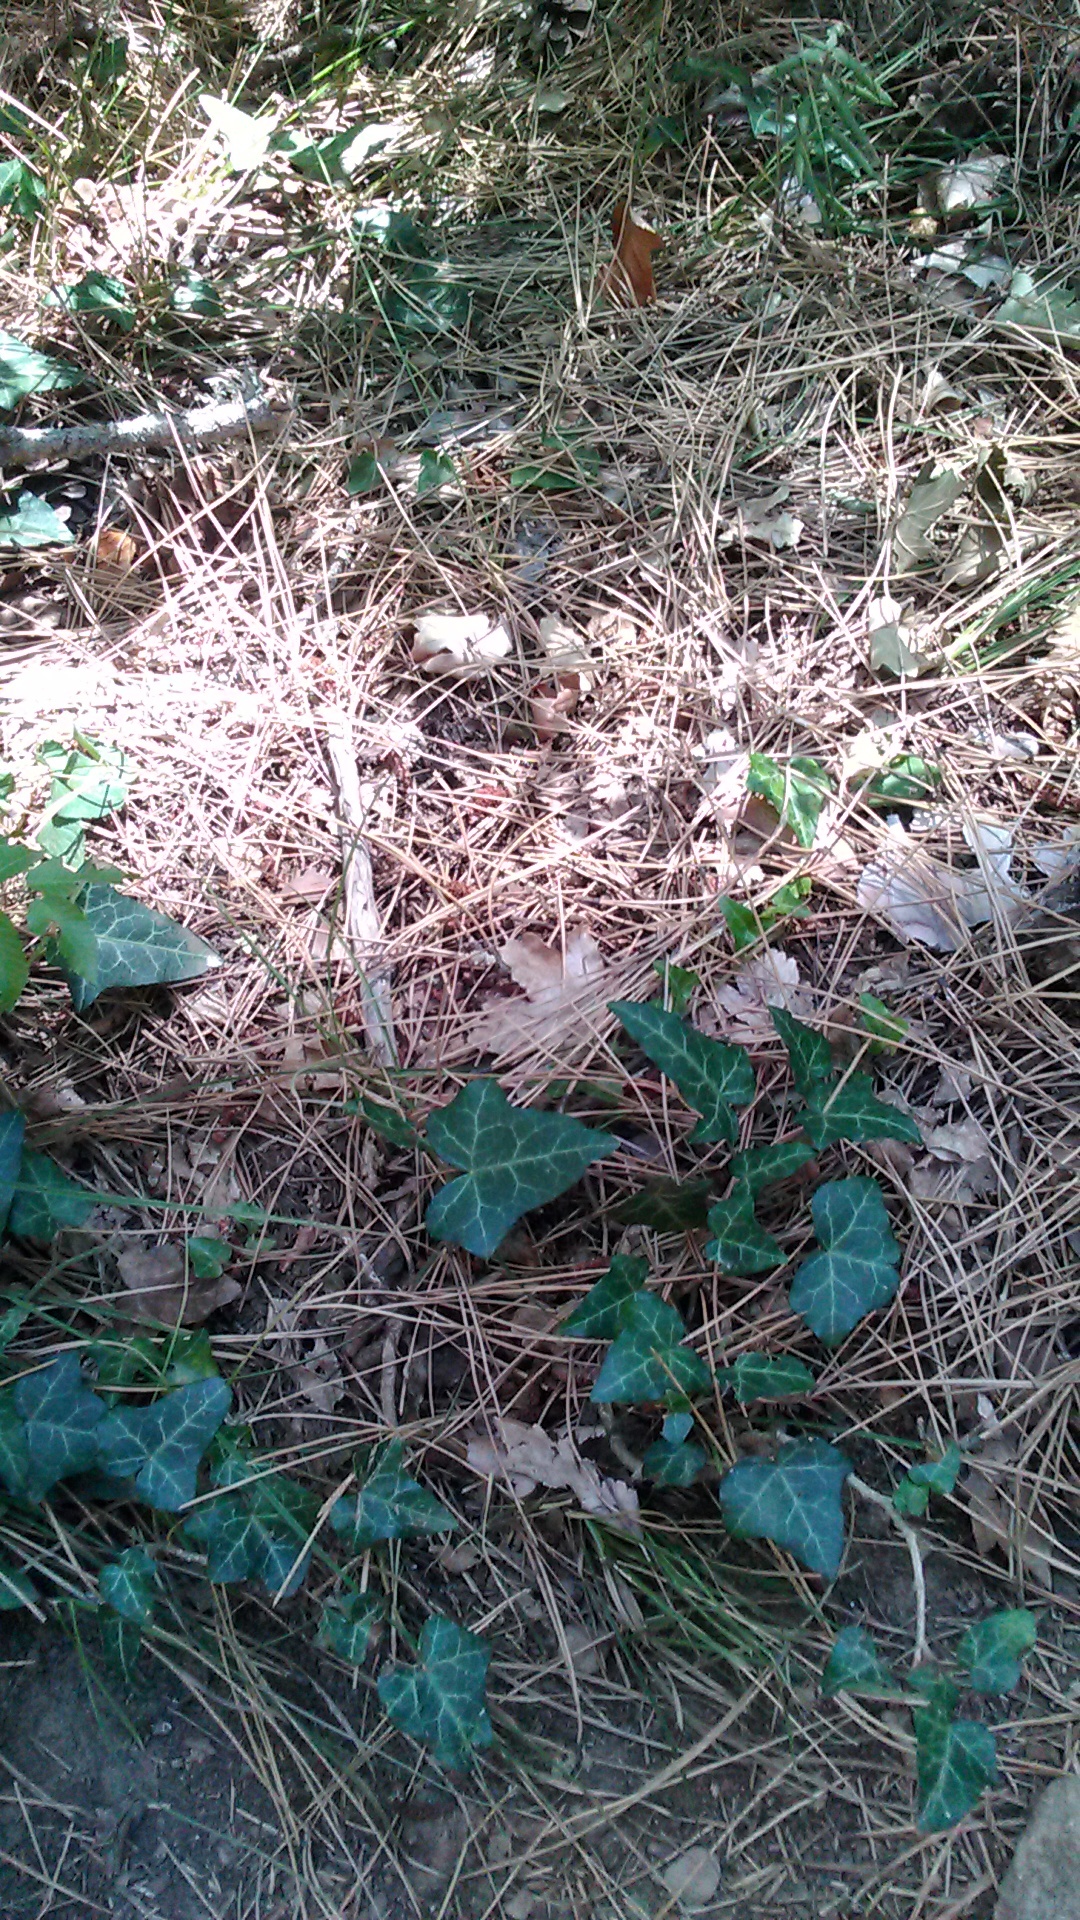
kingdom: Plantae
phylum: Tracheophyta
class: Magnoliopsida
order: Apiales
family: Araliaceae
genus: Hedera
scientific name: Hedera helix
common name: Ivy
